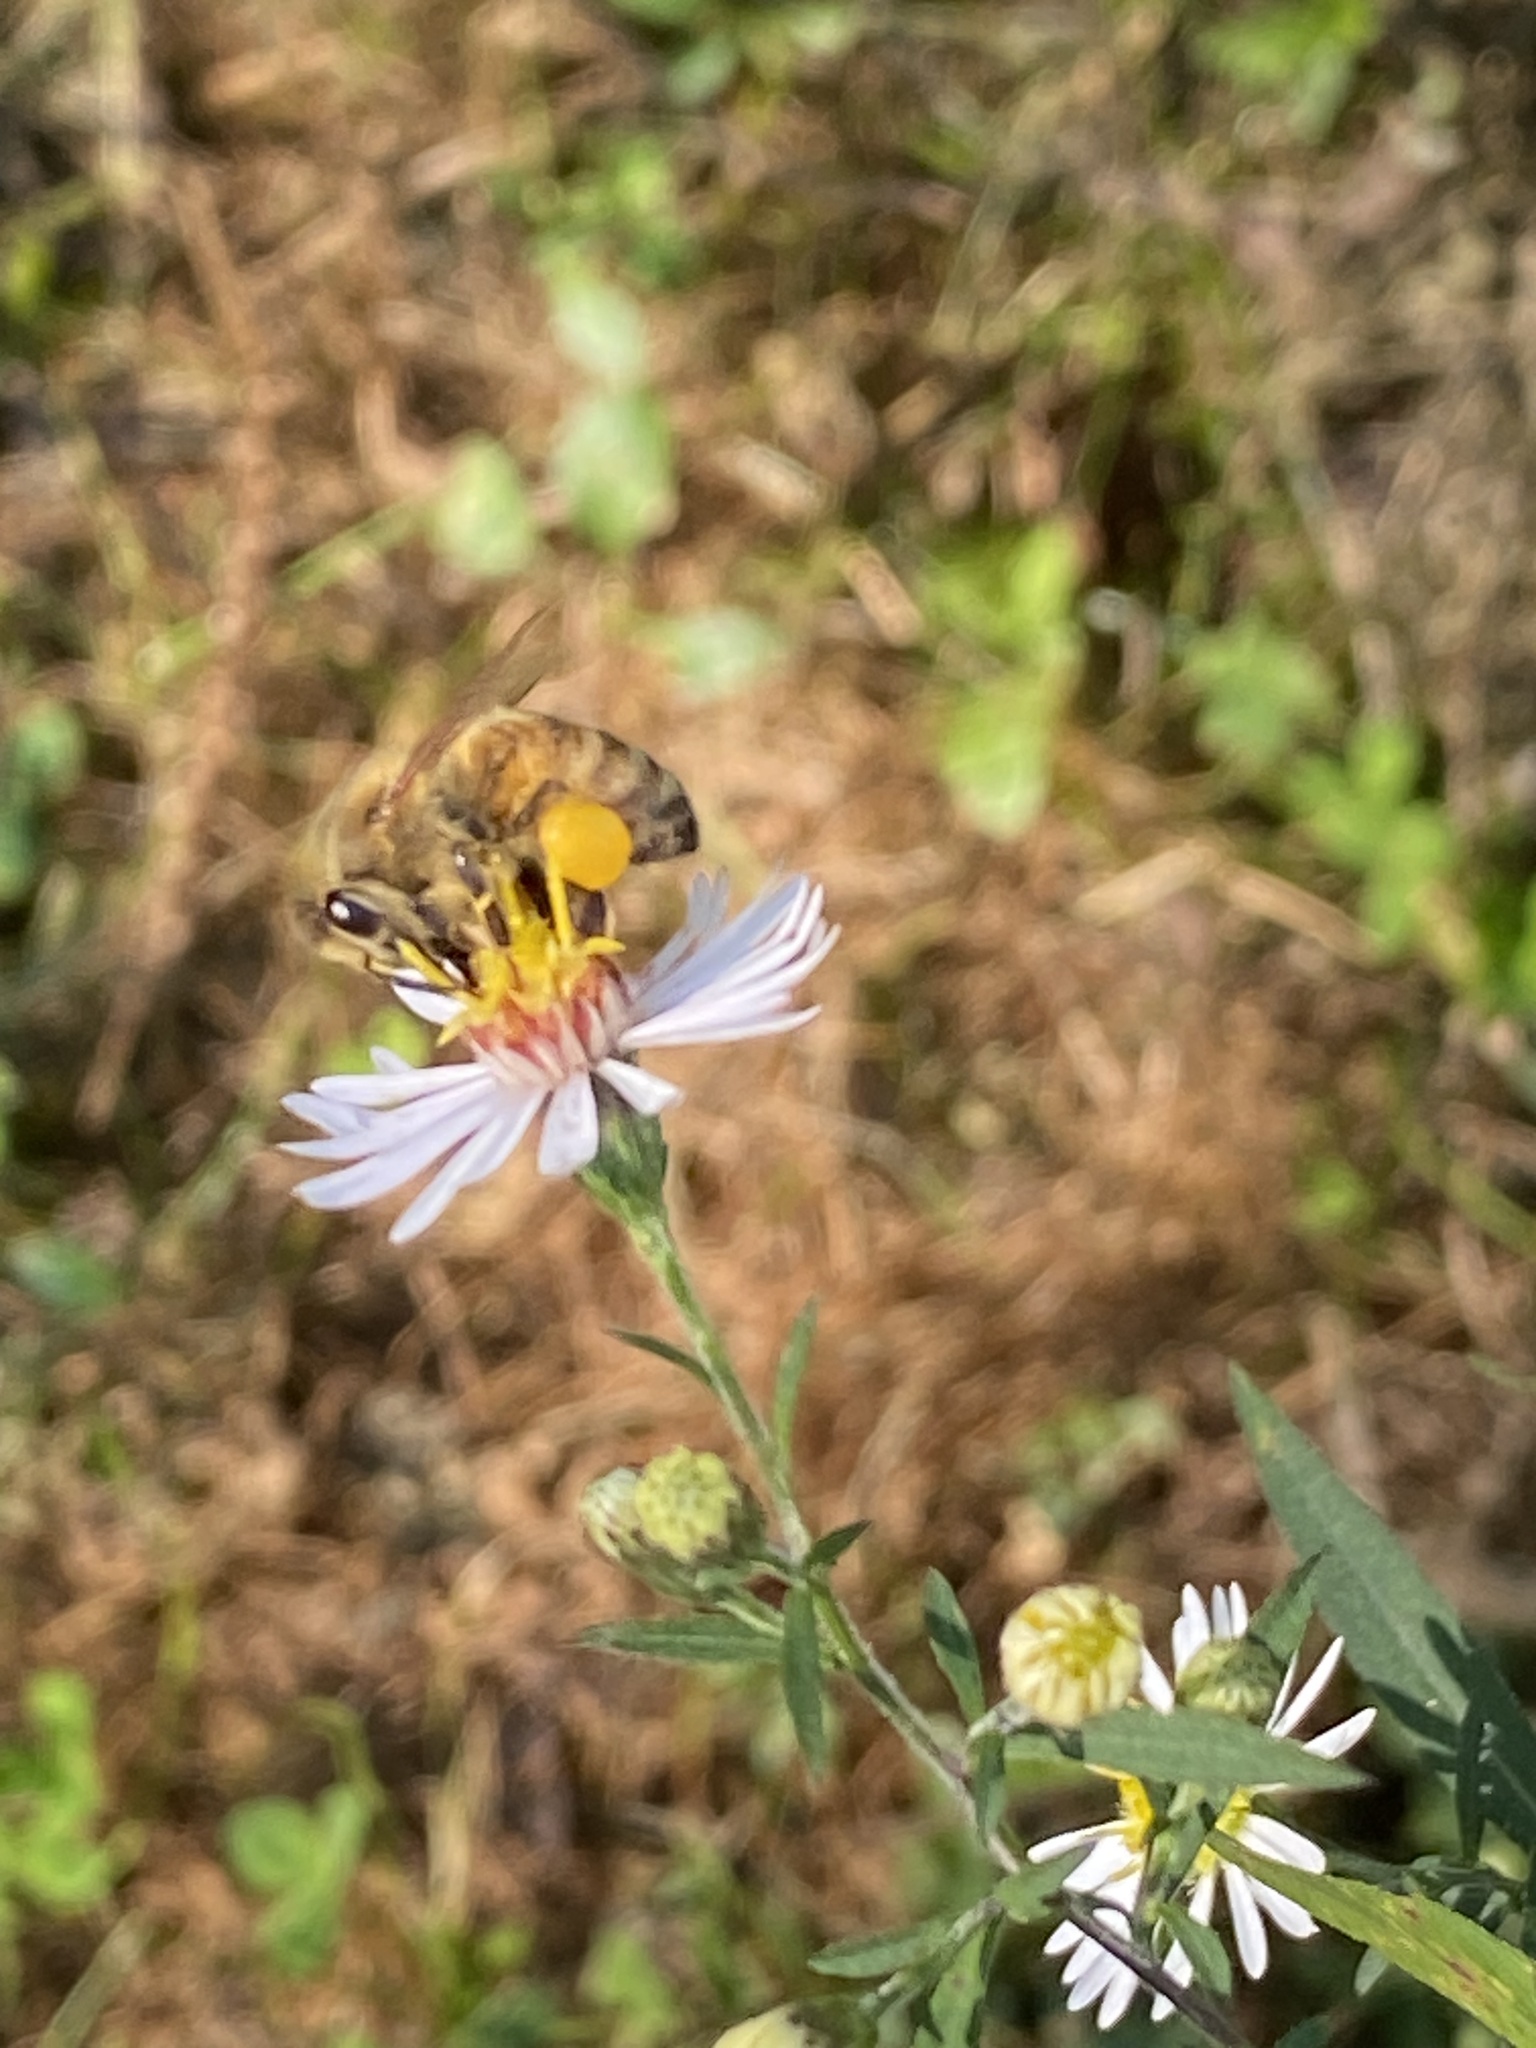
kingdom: Animalia
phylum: Arthropoda
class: Insecta
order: Hymenoptera
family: Apidae
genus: Apis
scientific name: Apis mellifera
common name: Honey bee
